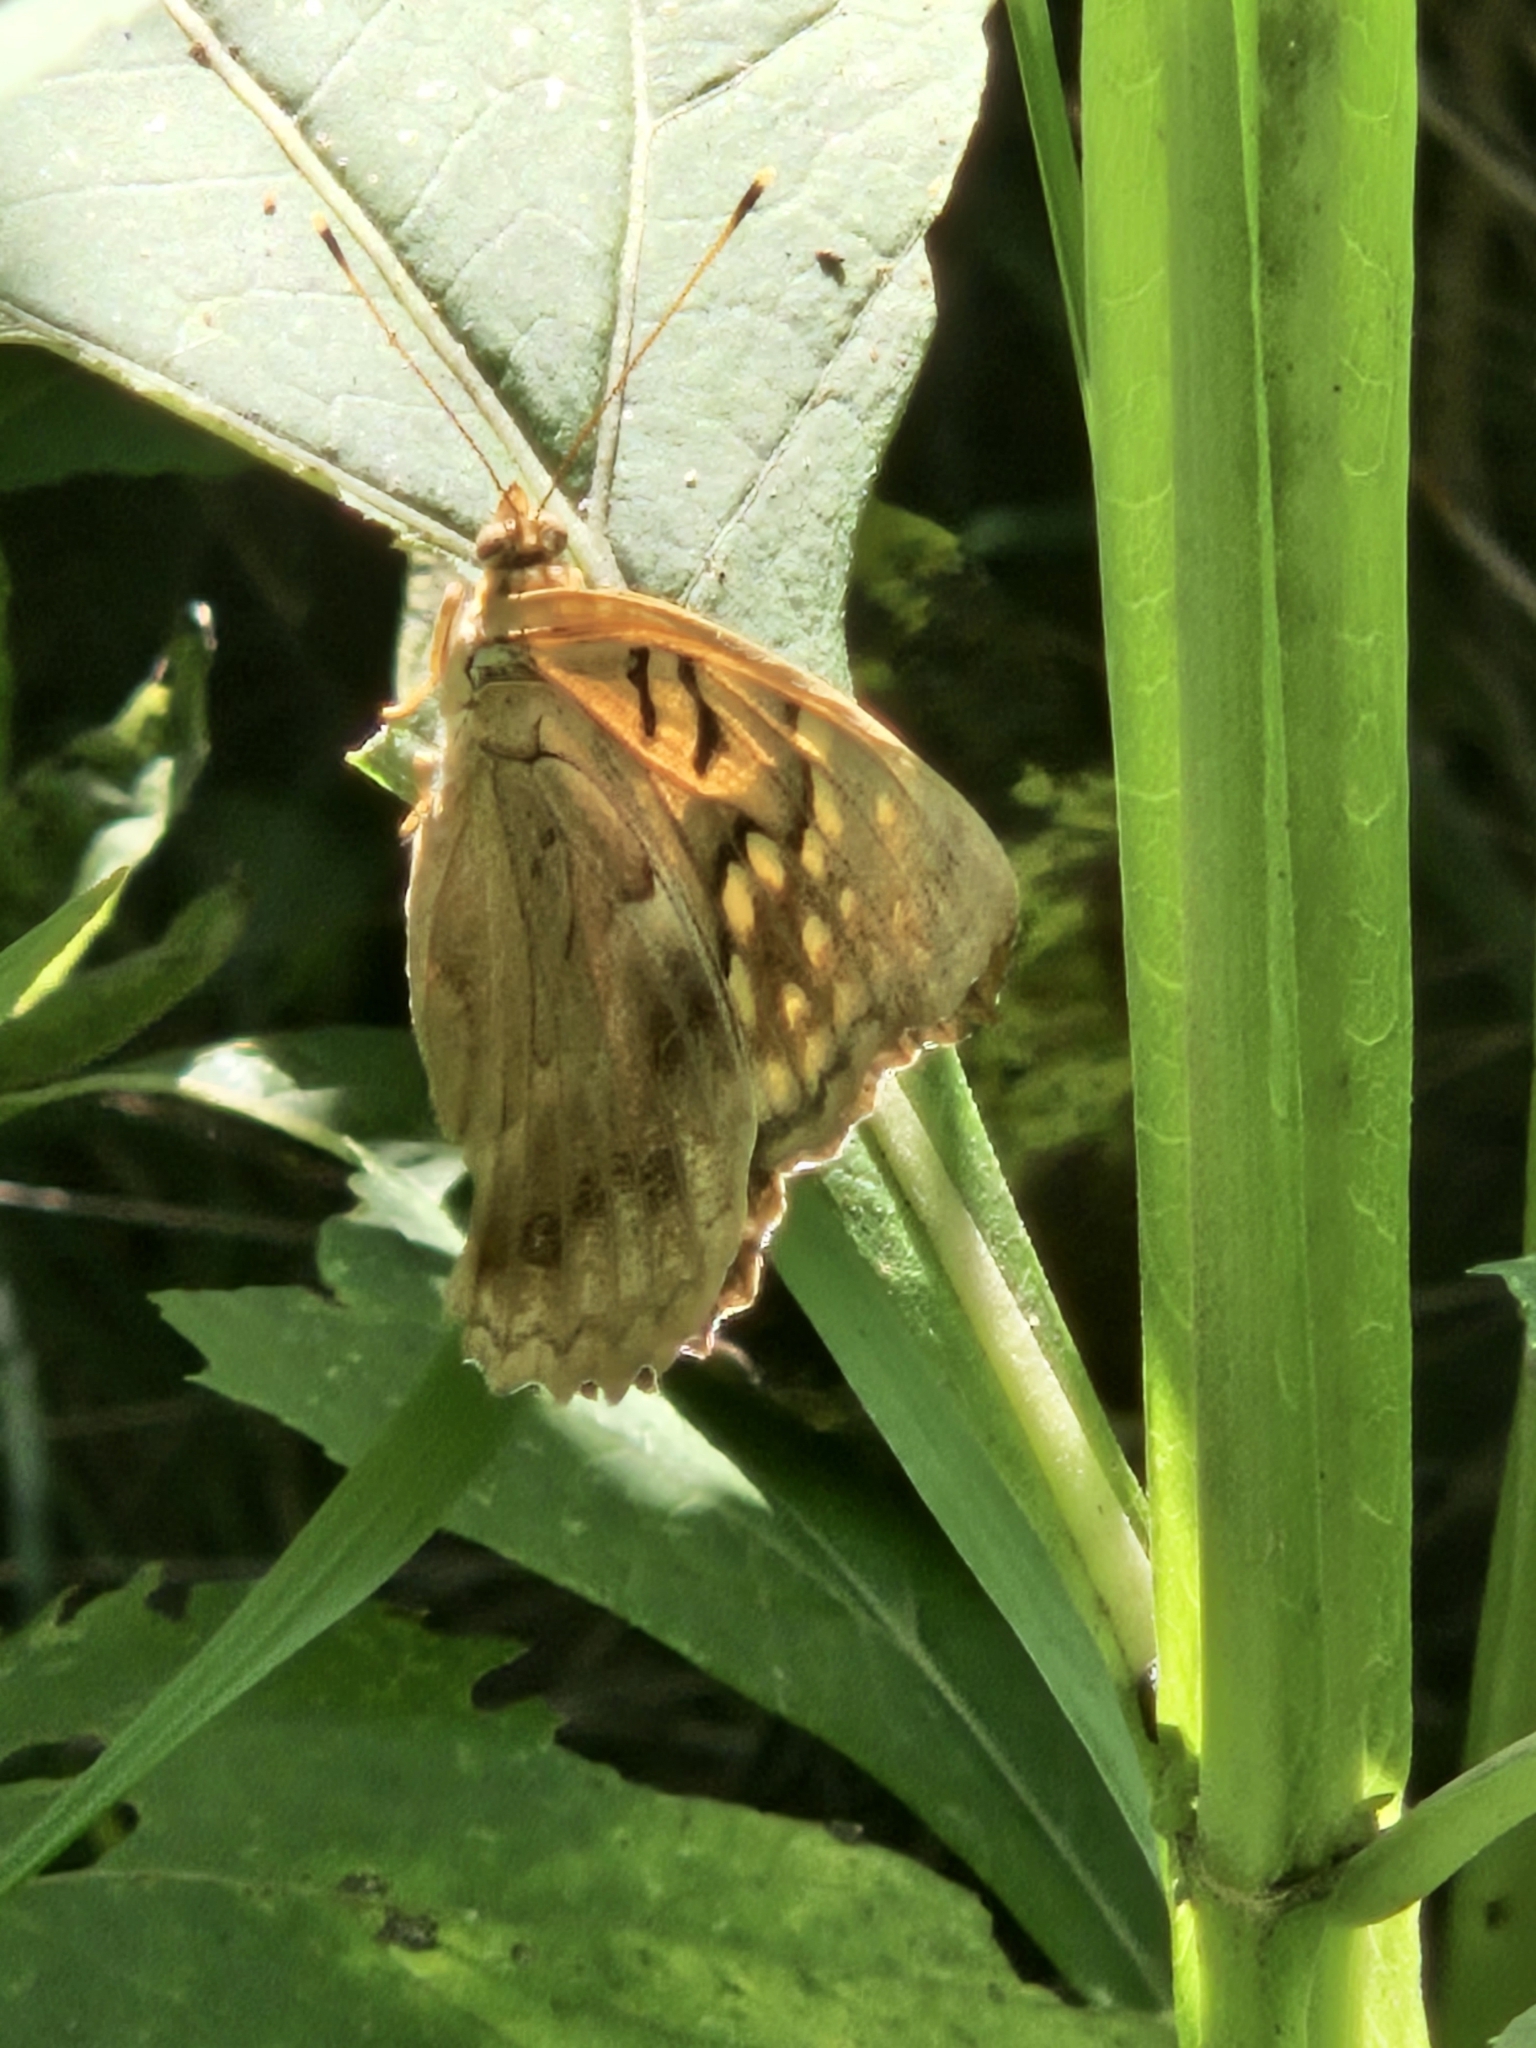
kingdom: Animalia
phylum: Arthropoda
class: Insecta
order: Lepidoptera
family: Nymphalidae
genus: Asterocampa
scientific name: Asterocampa clyton
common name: Tawny emperor
